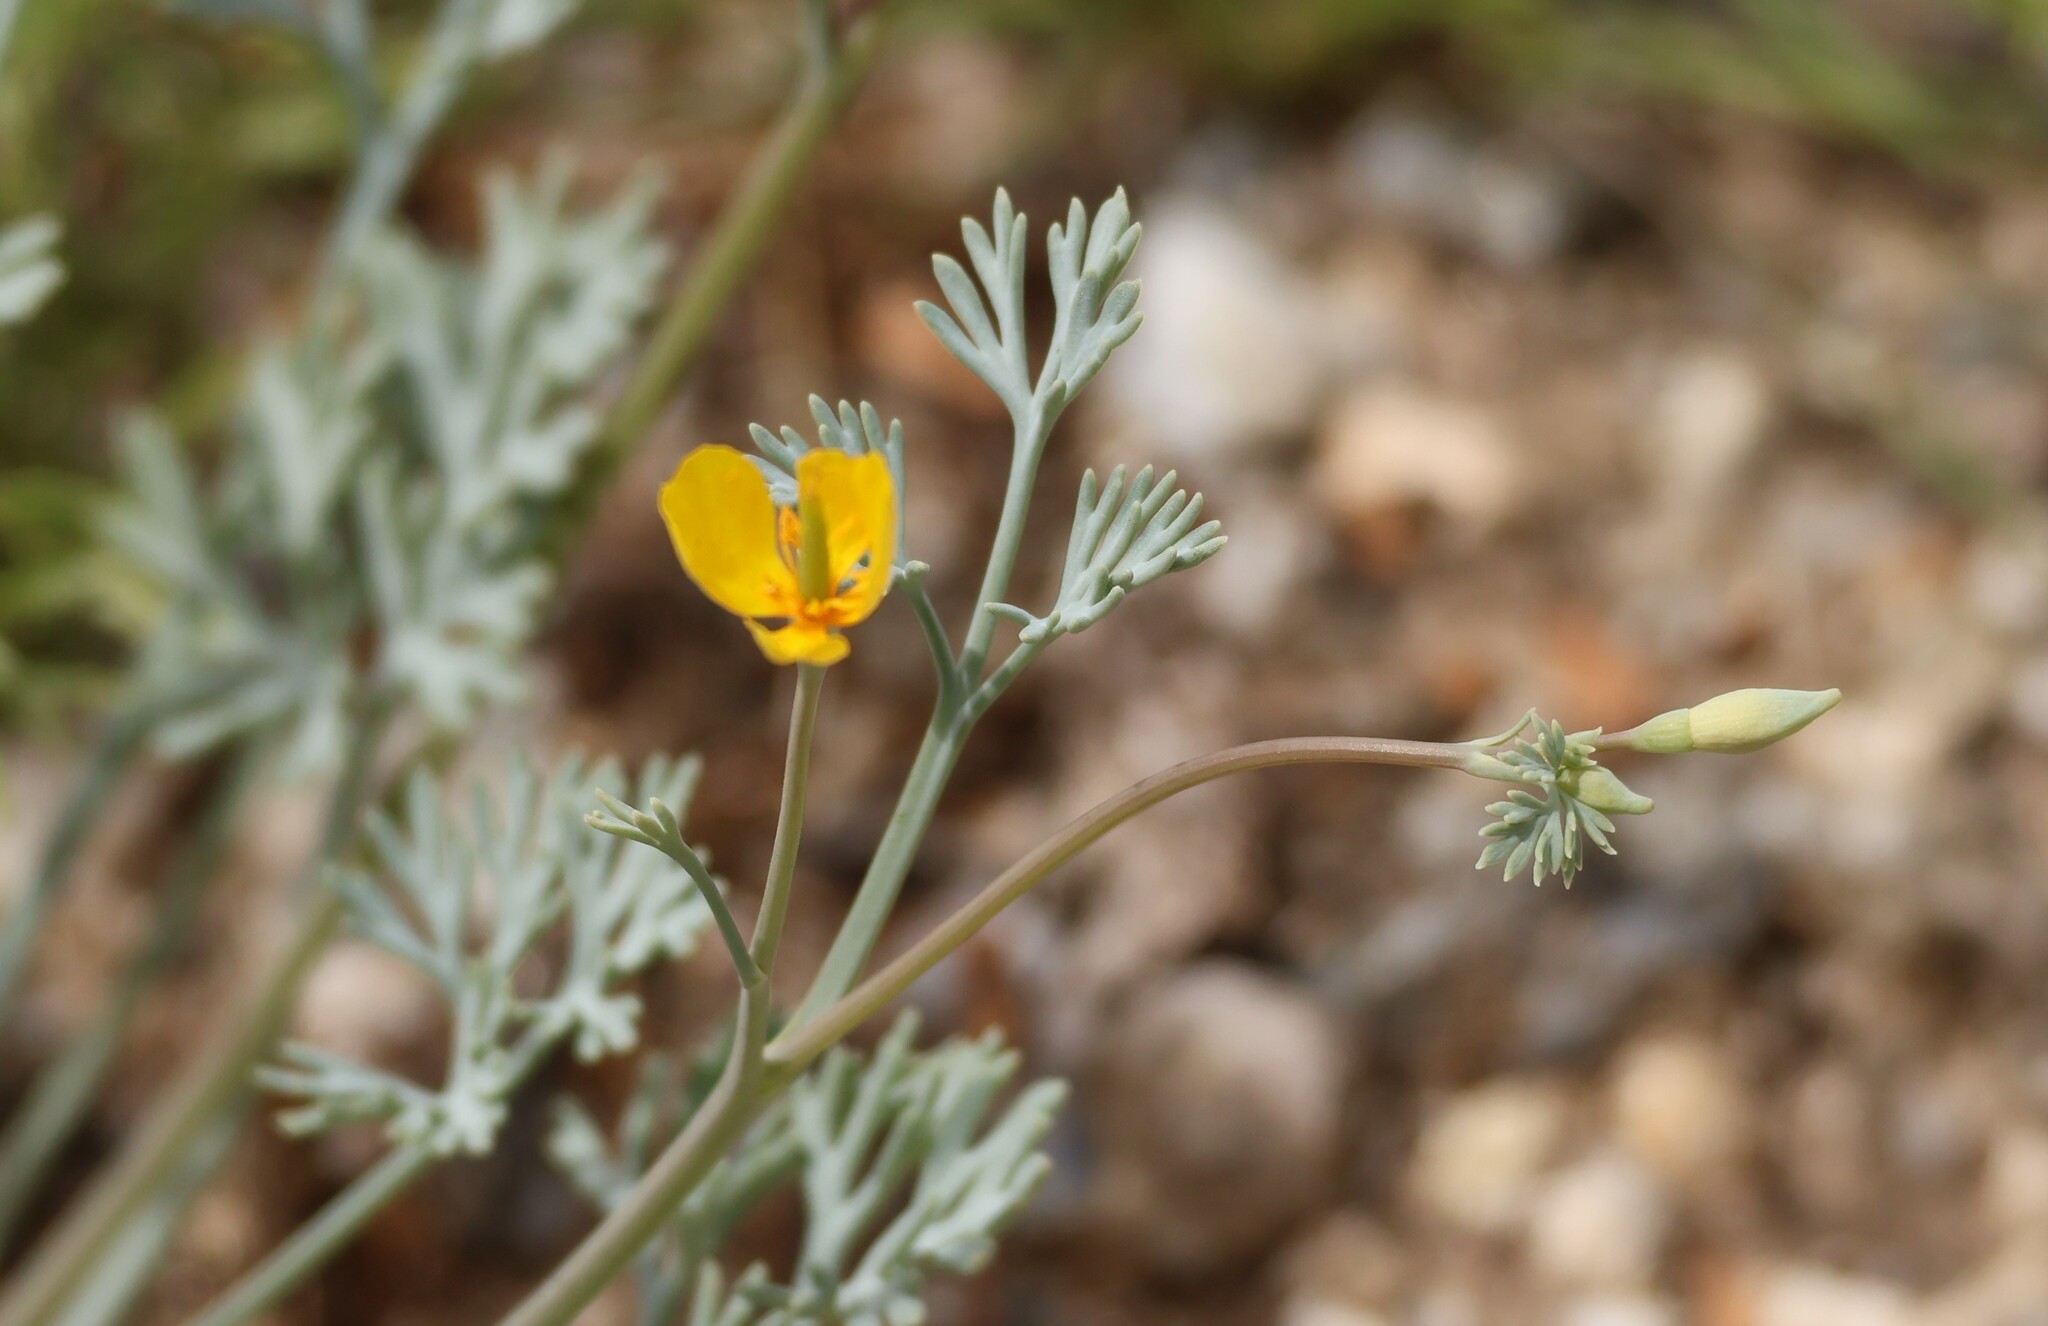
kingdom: Plantae
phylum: Tracheophyta
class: Magnoliopsida
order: Ranunculales
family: Papaveraceae
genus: Eschscholzia
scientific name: Eschscholzia minutiflora
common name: Small-flower california-poppy
